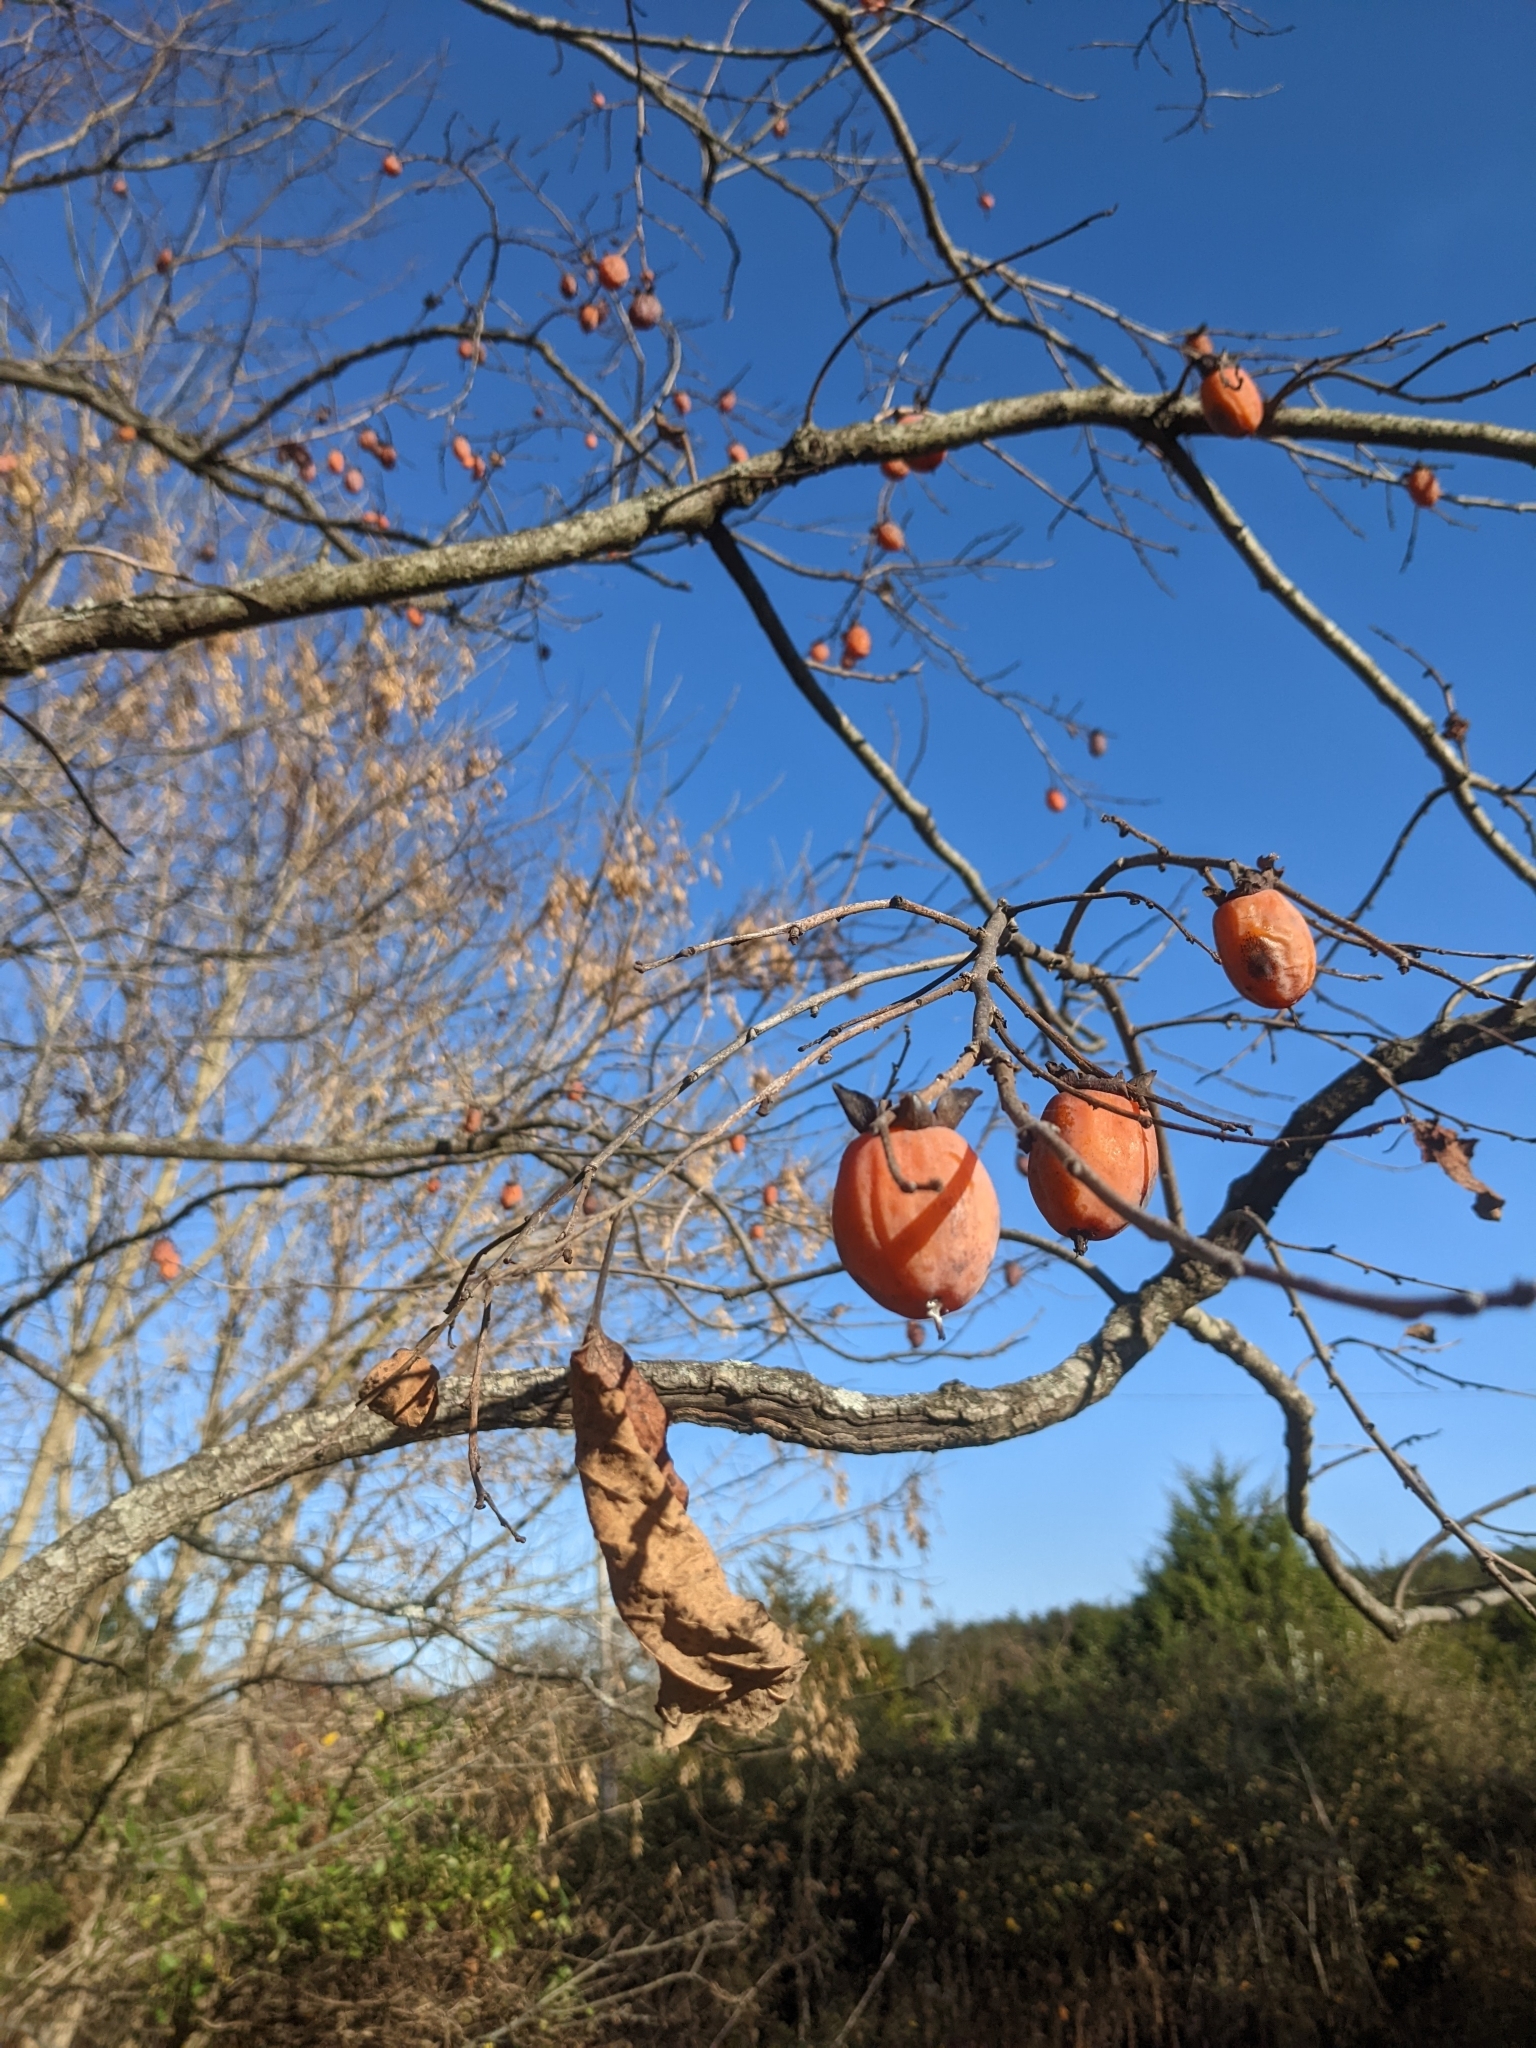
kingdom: Plantae
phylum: Tracheophyta
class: Magnoliopsida
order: Ericales
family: Ebenaceae
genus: Diospyros
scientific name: Diospyros virginiana
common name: Persimmon
